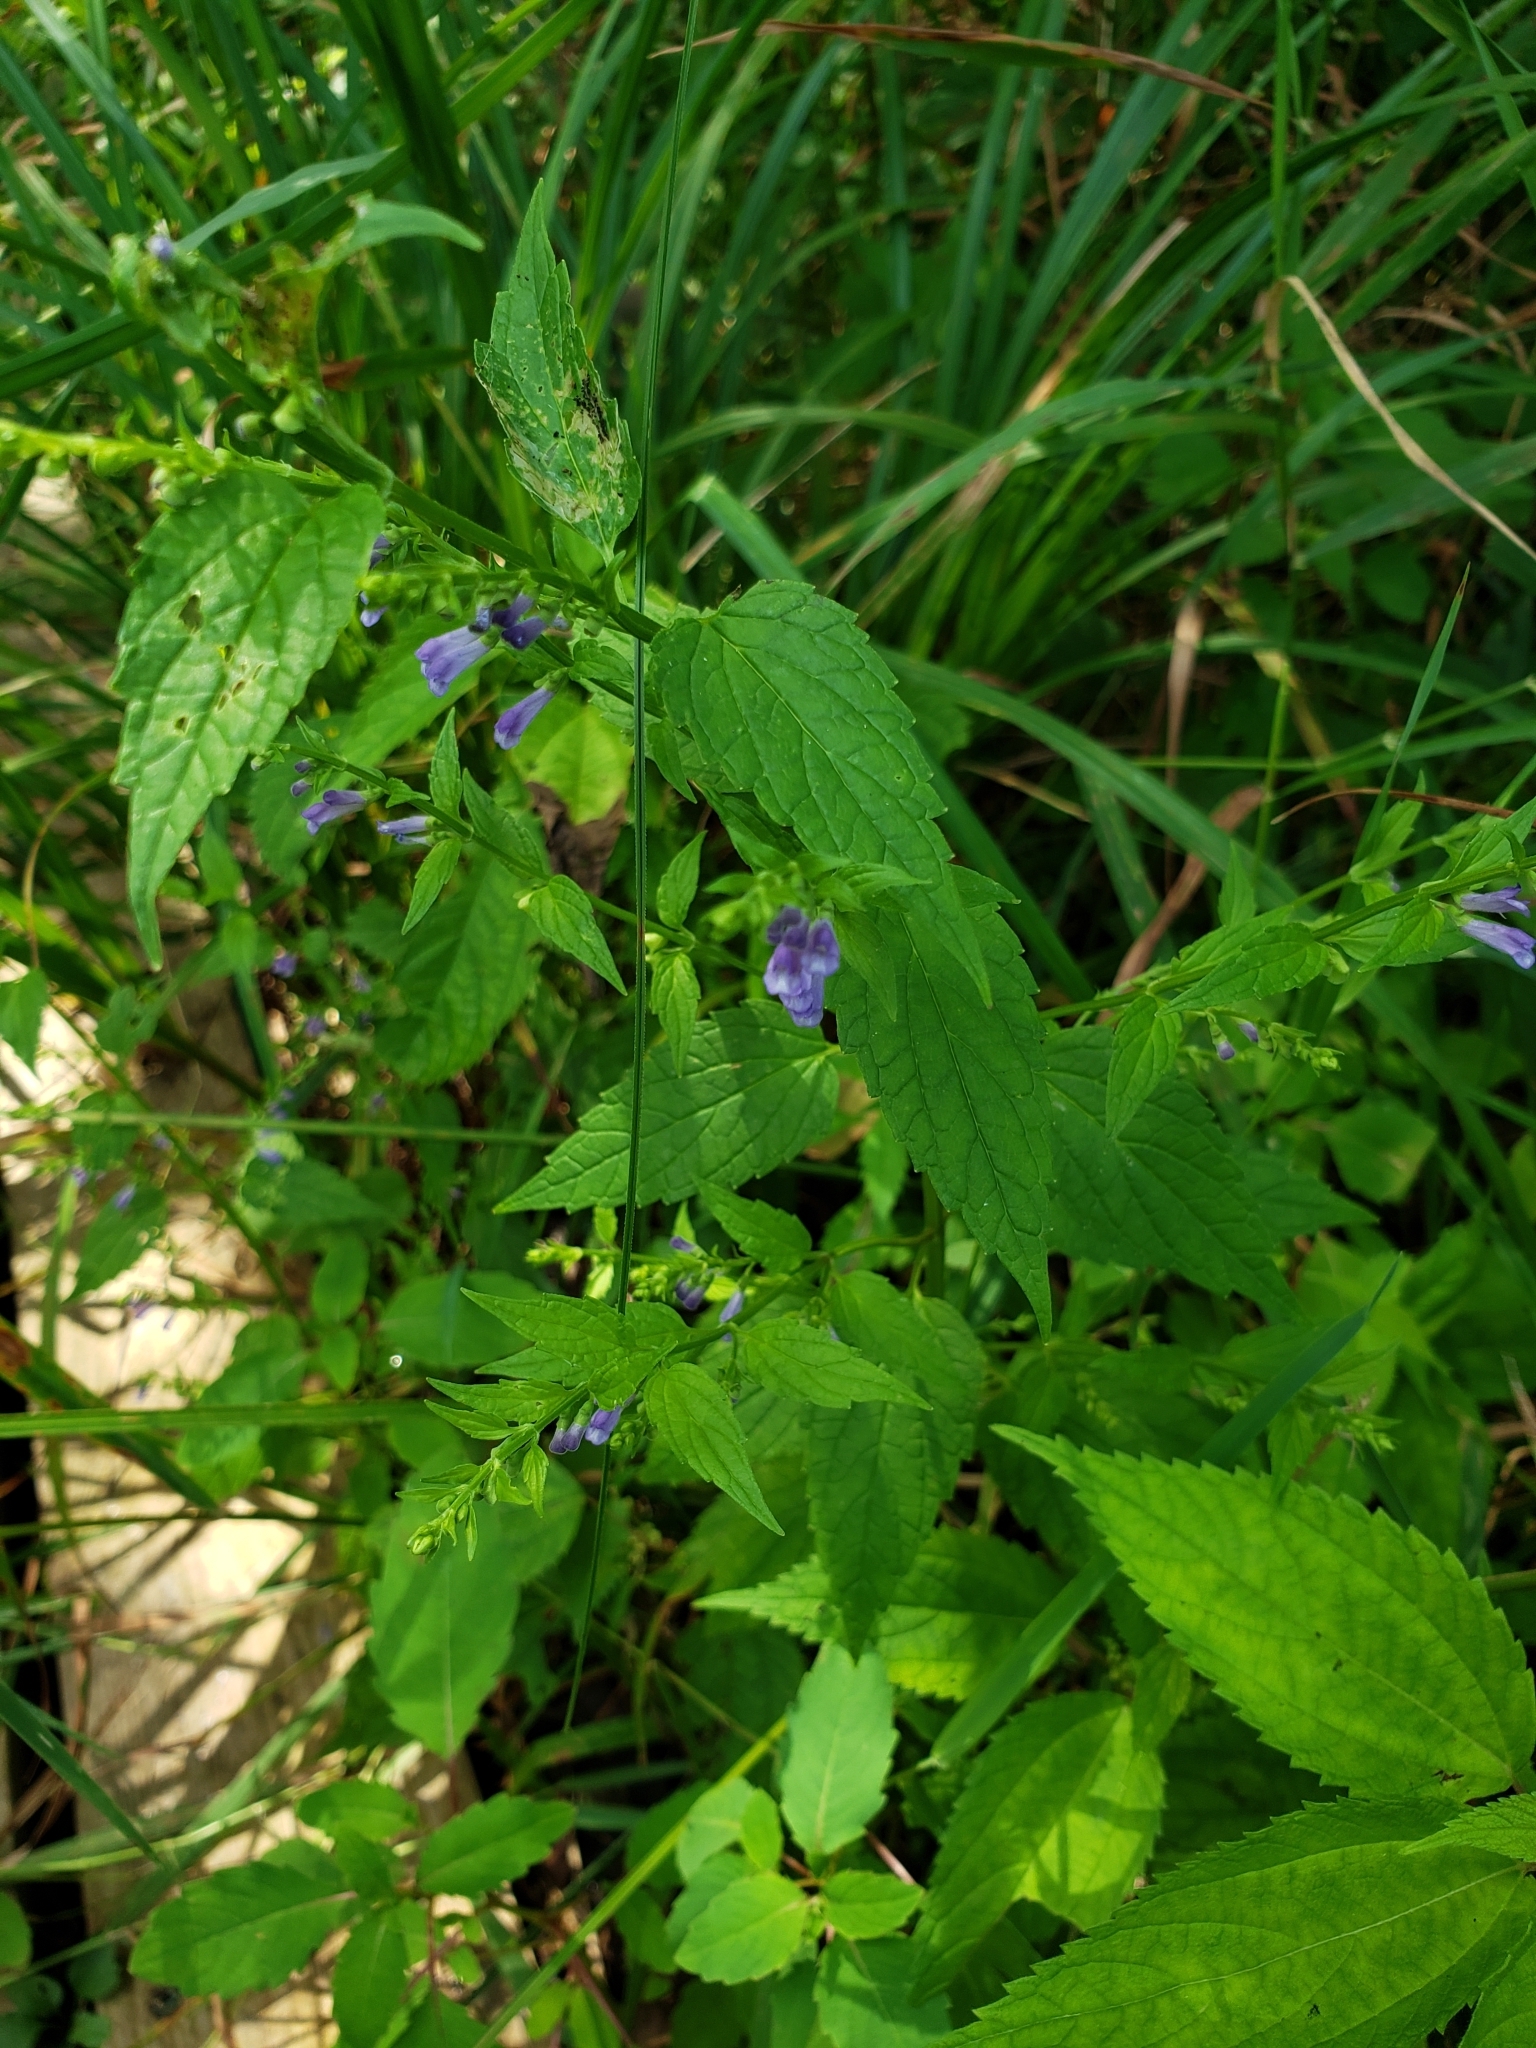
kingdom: Plantae
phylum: Tracheophyta
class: Magnoliopsida
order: Lamiales
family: Lamiaceae
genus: Scutellaria
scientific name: Scutellaria lateriflora
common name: Blue skullcap
